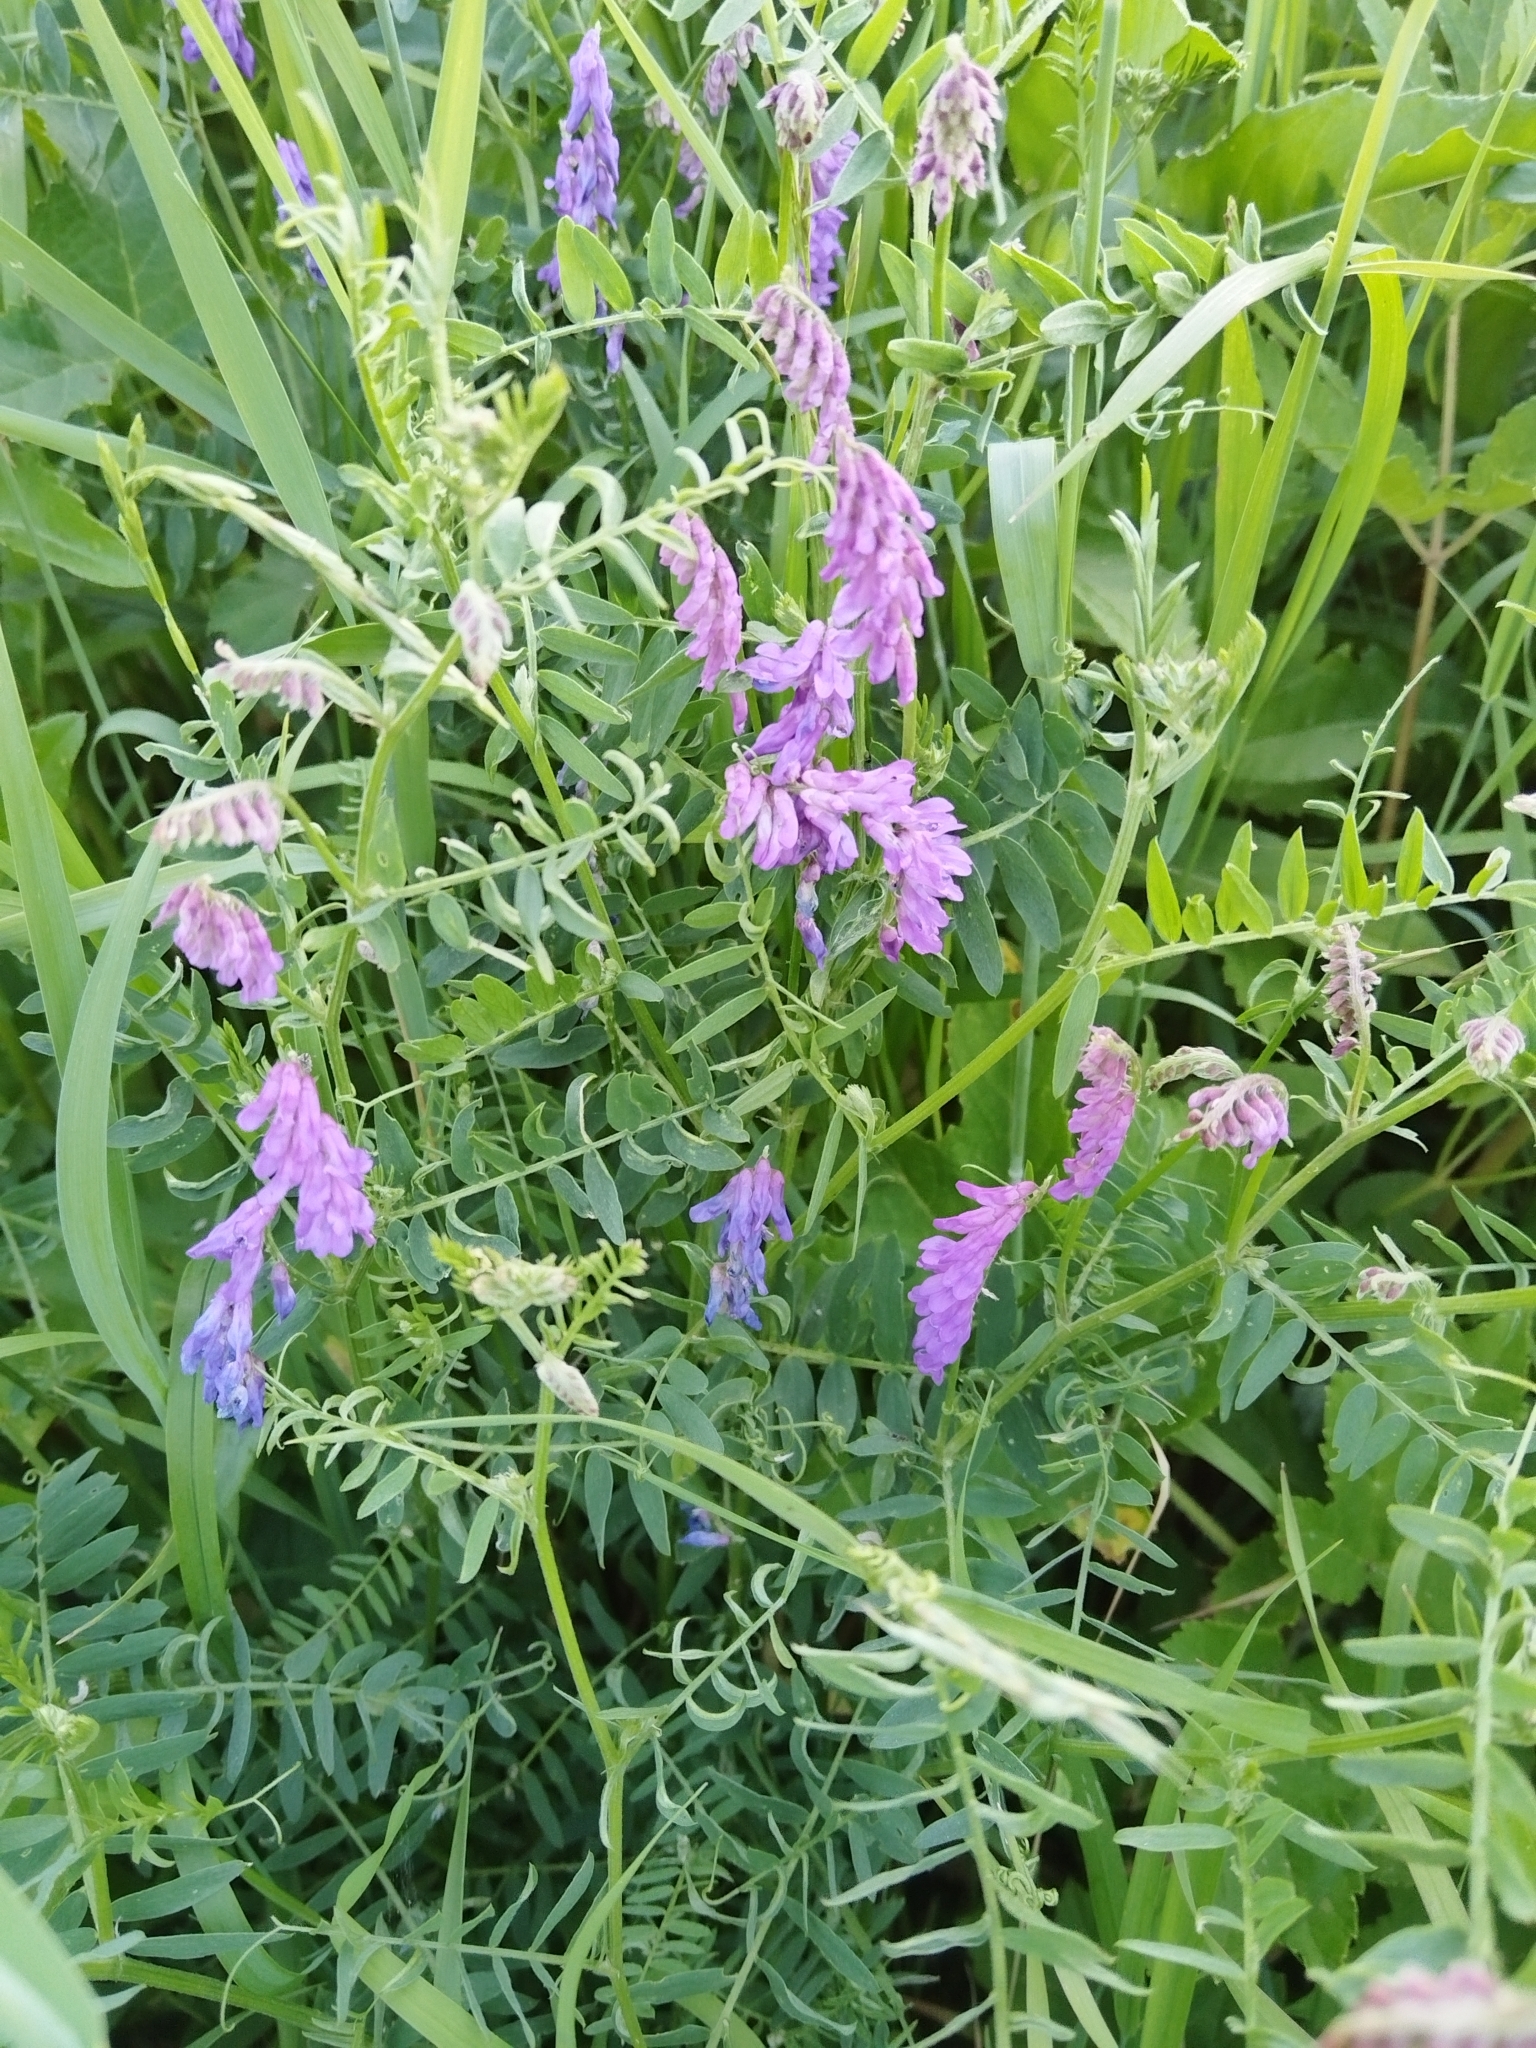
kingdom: Plantae
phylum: Tracheophyta
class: Magnoliopsida
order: Fabales
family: Fabaceae
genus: Vicia
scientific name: Vicia cracca
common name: Bird vetch
